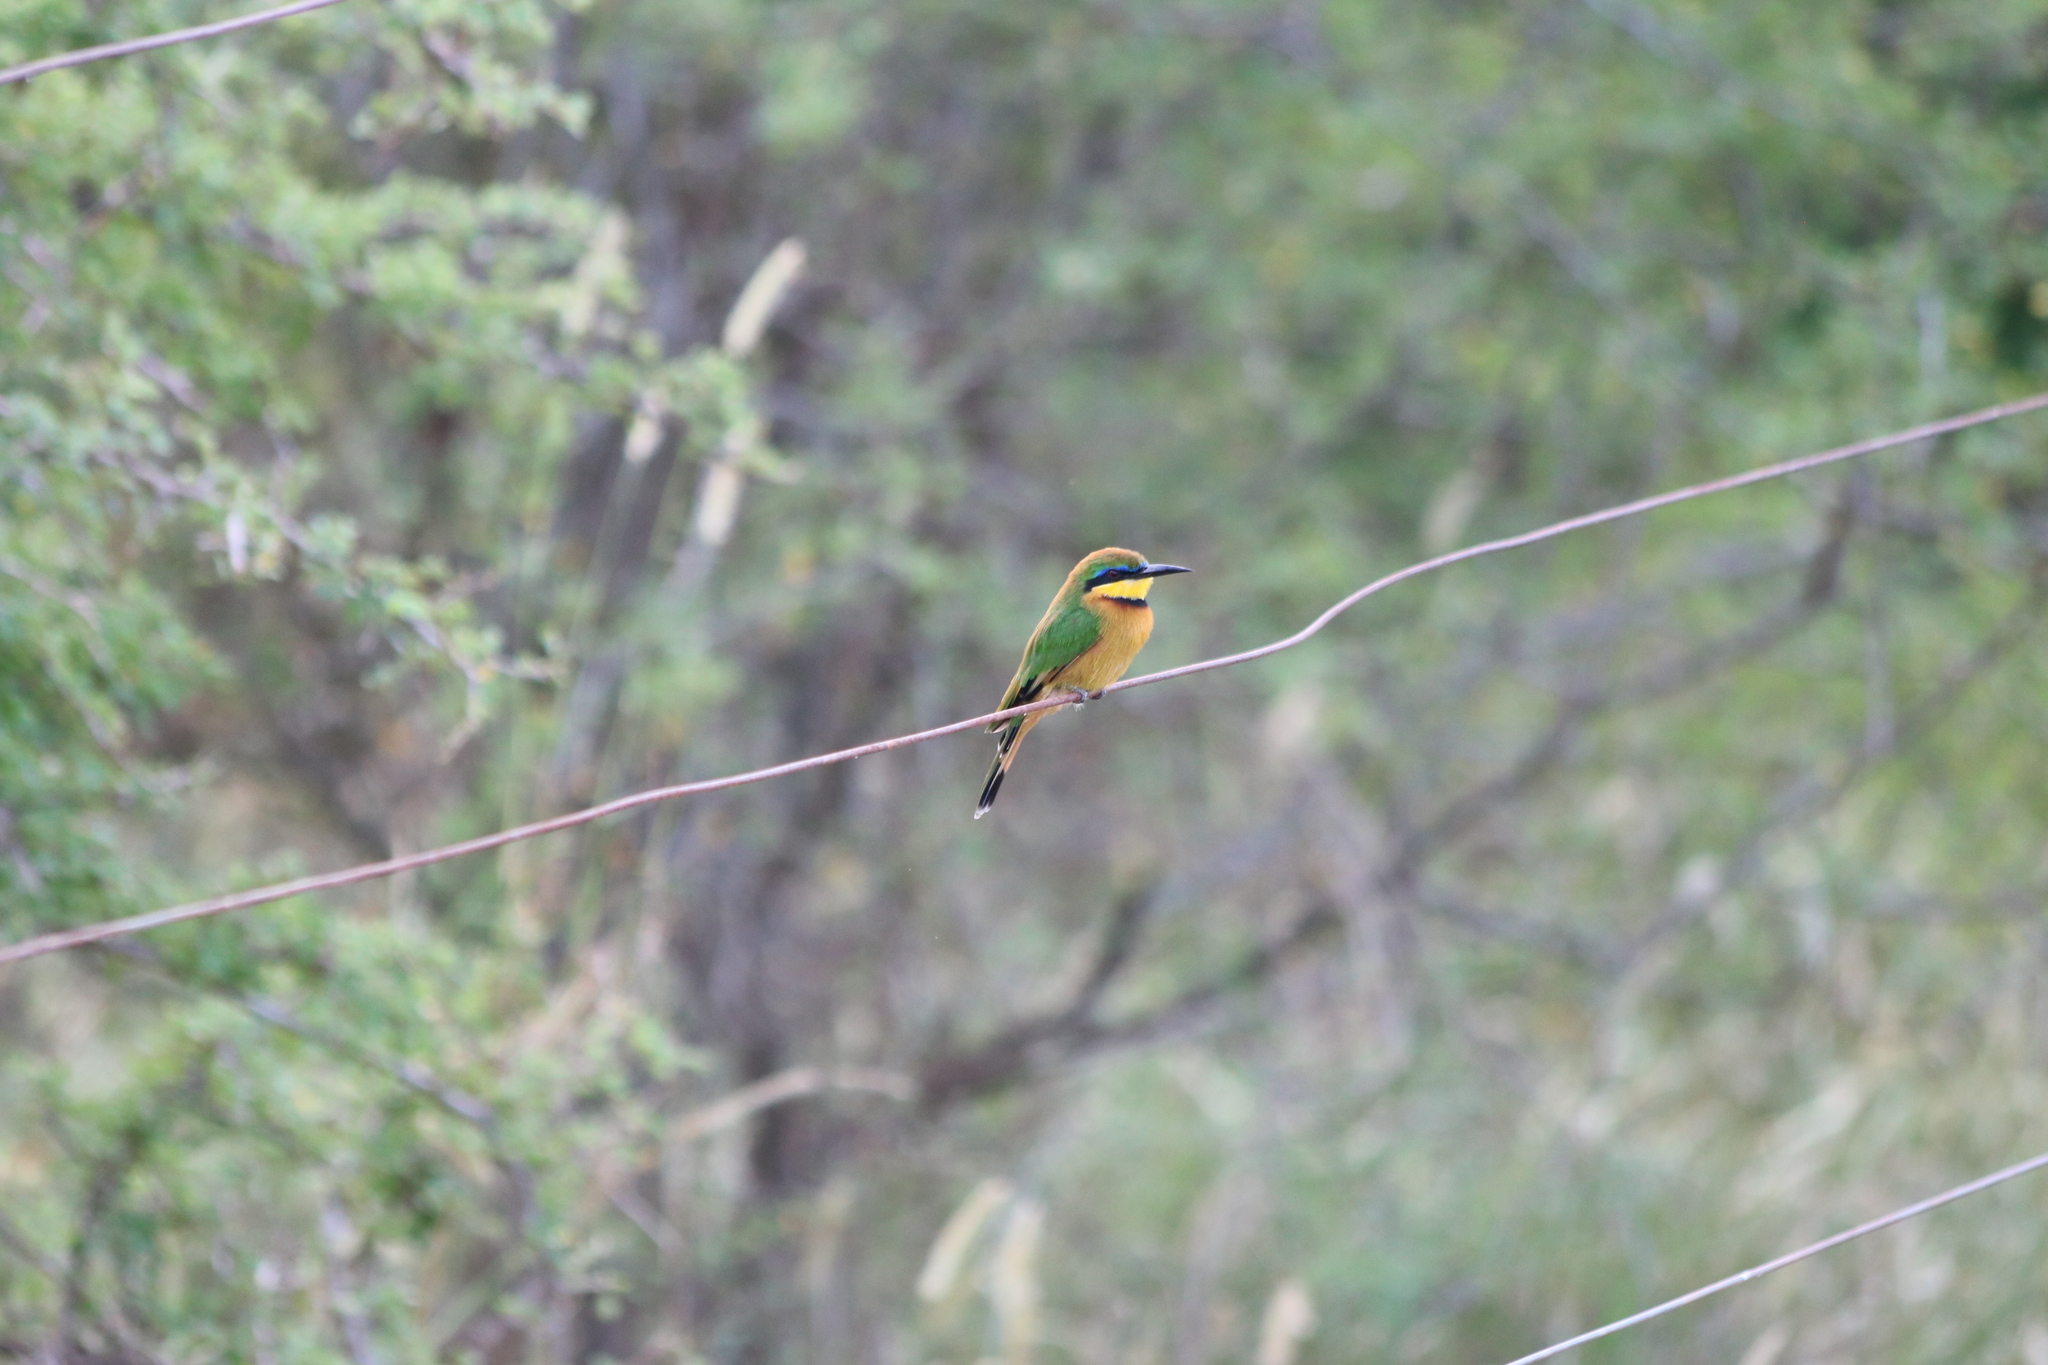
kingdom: Animalia
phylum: Chordata
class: Aves
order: Coraciiformes
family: Meropidae
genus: Merops
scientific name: Merops pusillus
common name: Little bee-eater
